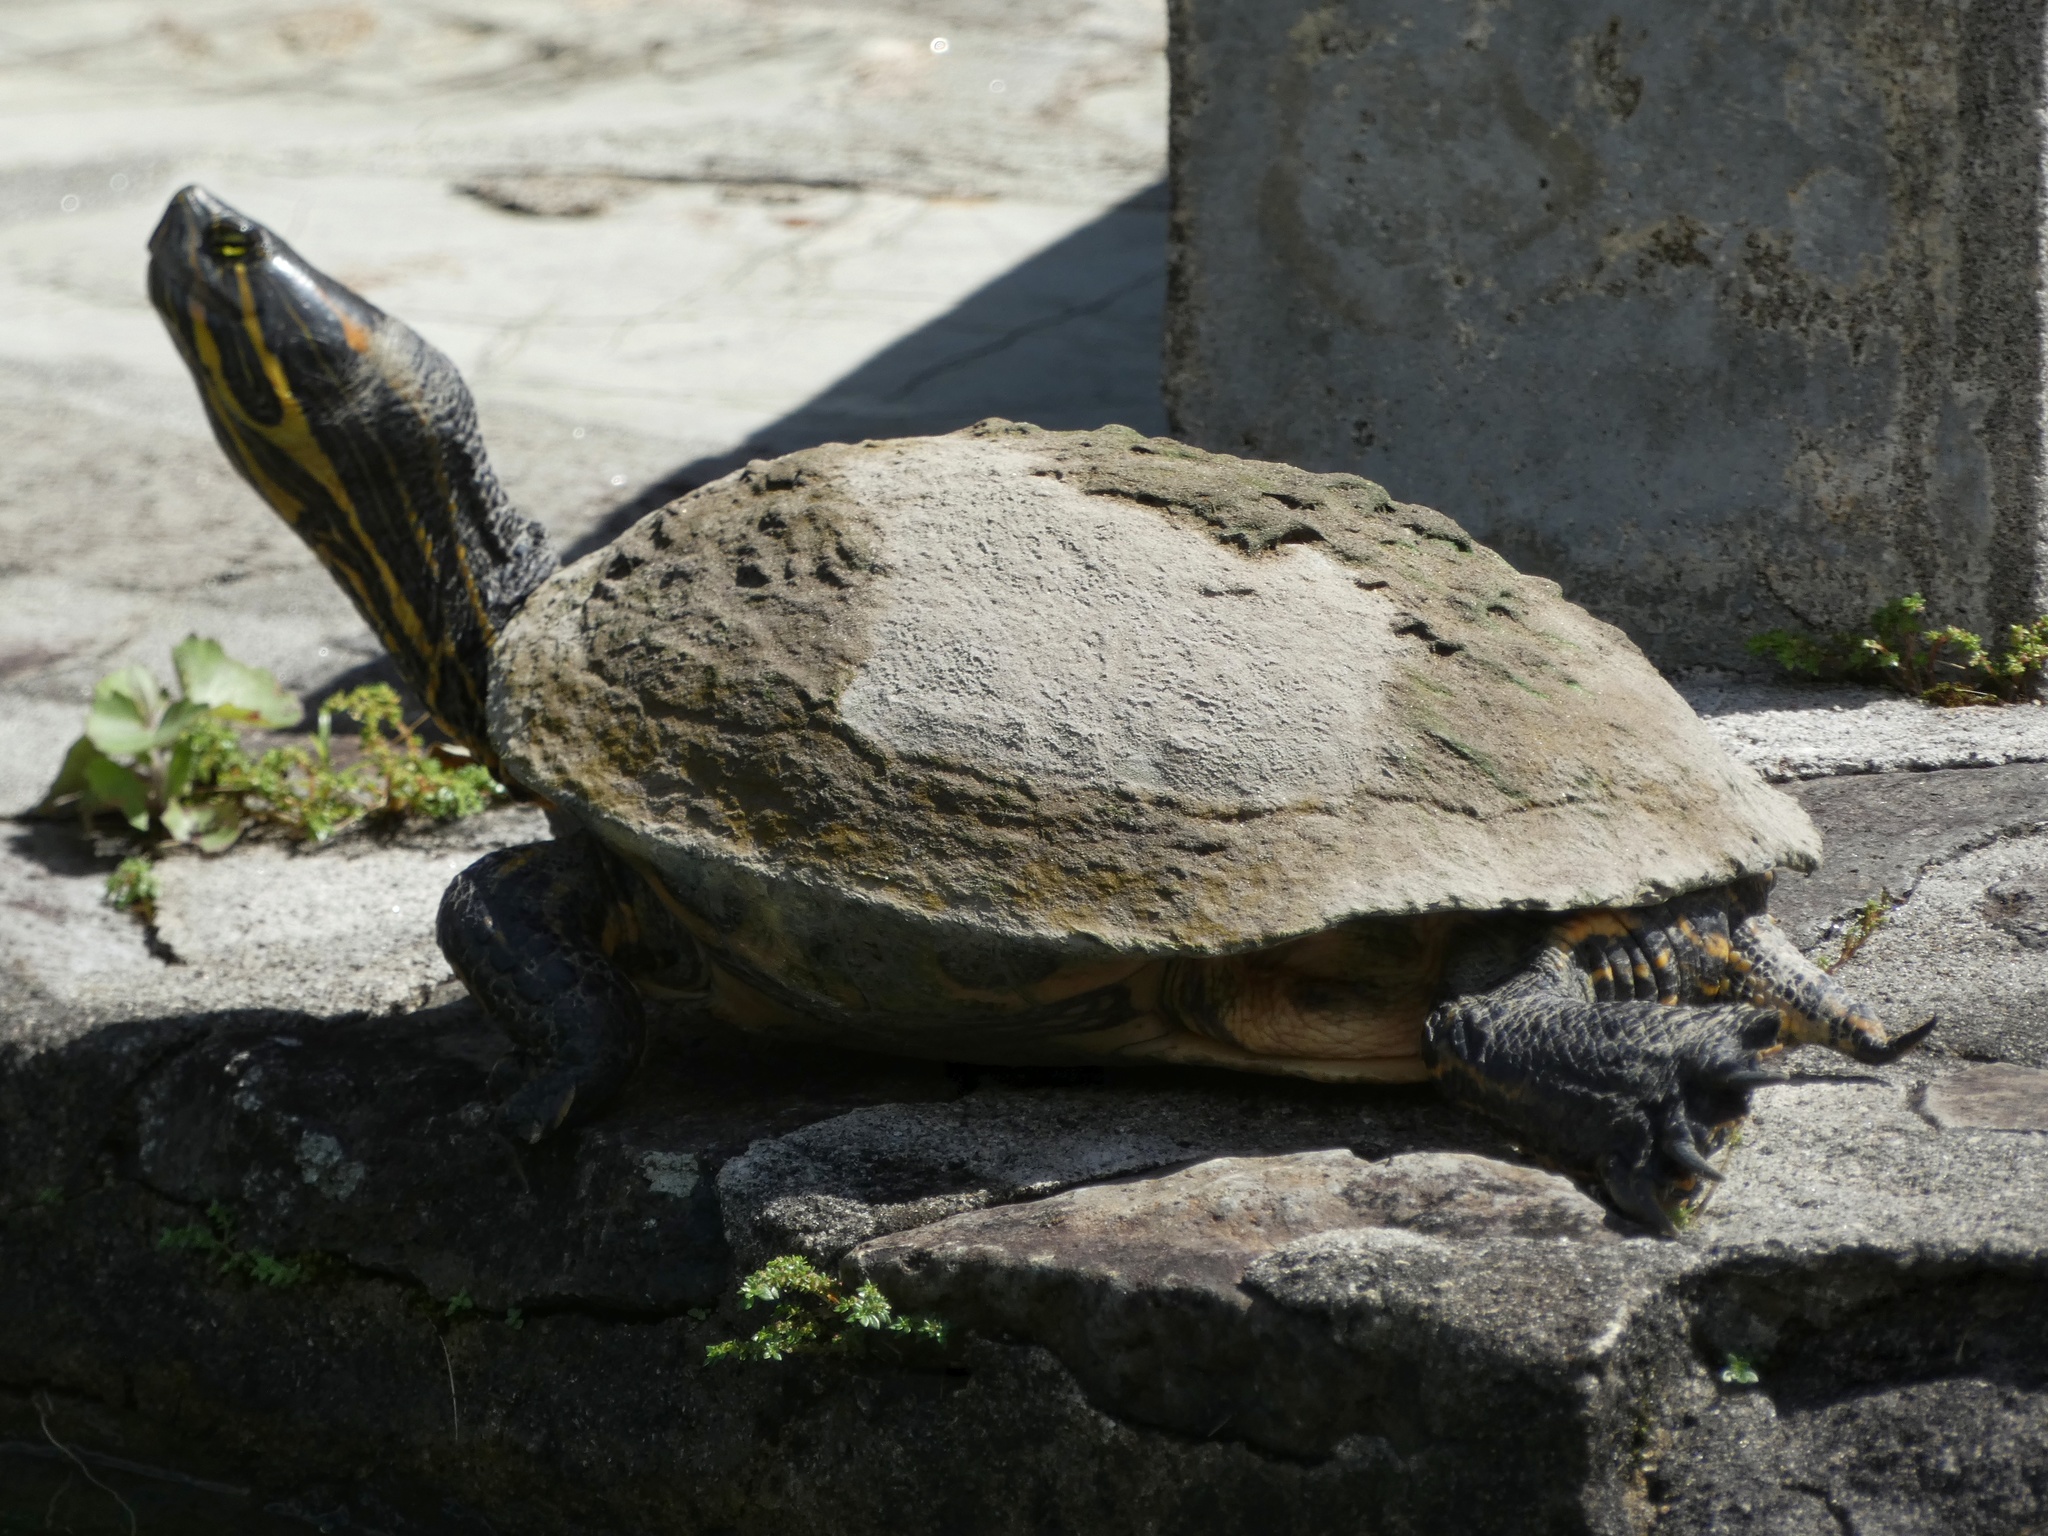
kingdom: Animalia
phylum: Chordata
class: Testudines
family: Emydidae
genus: Trachemys
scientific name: Trachemys grayi
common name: Gray's slider
